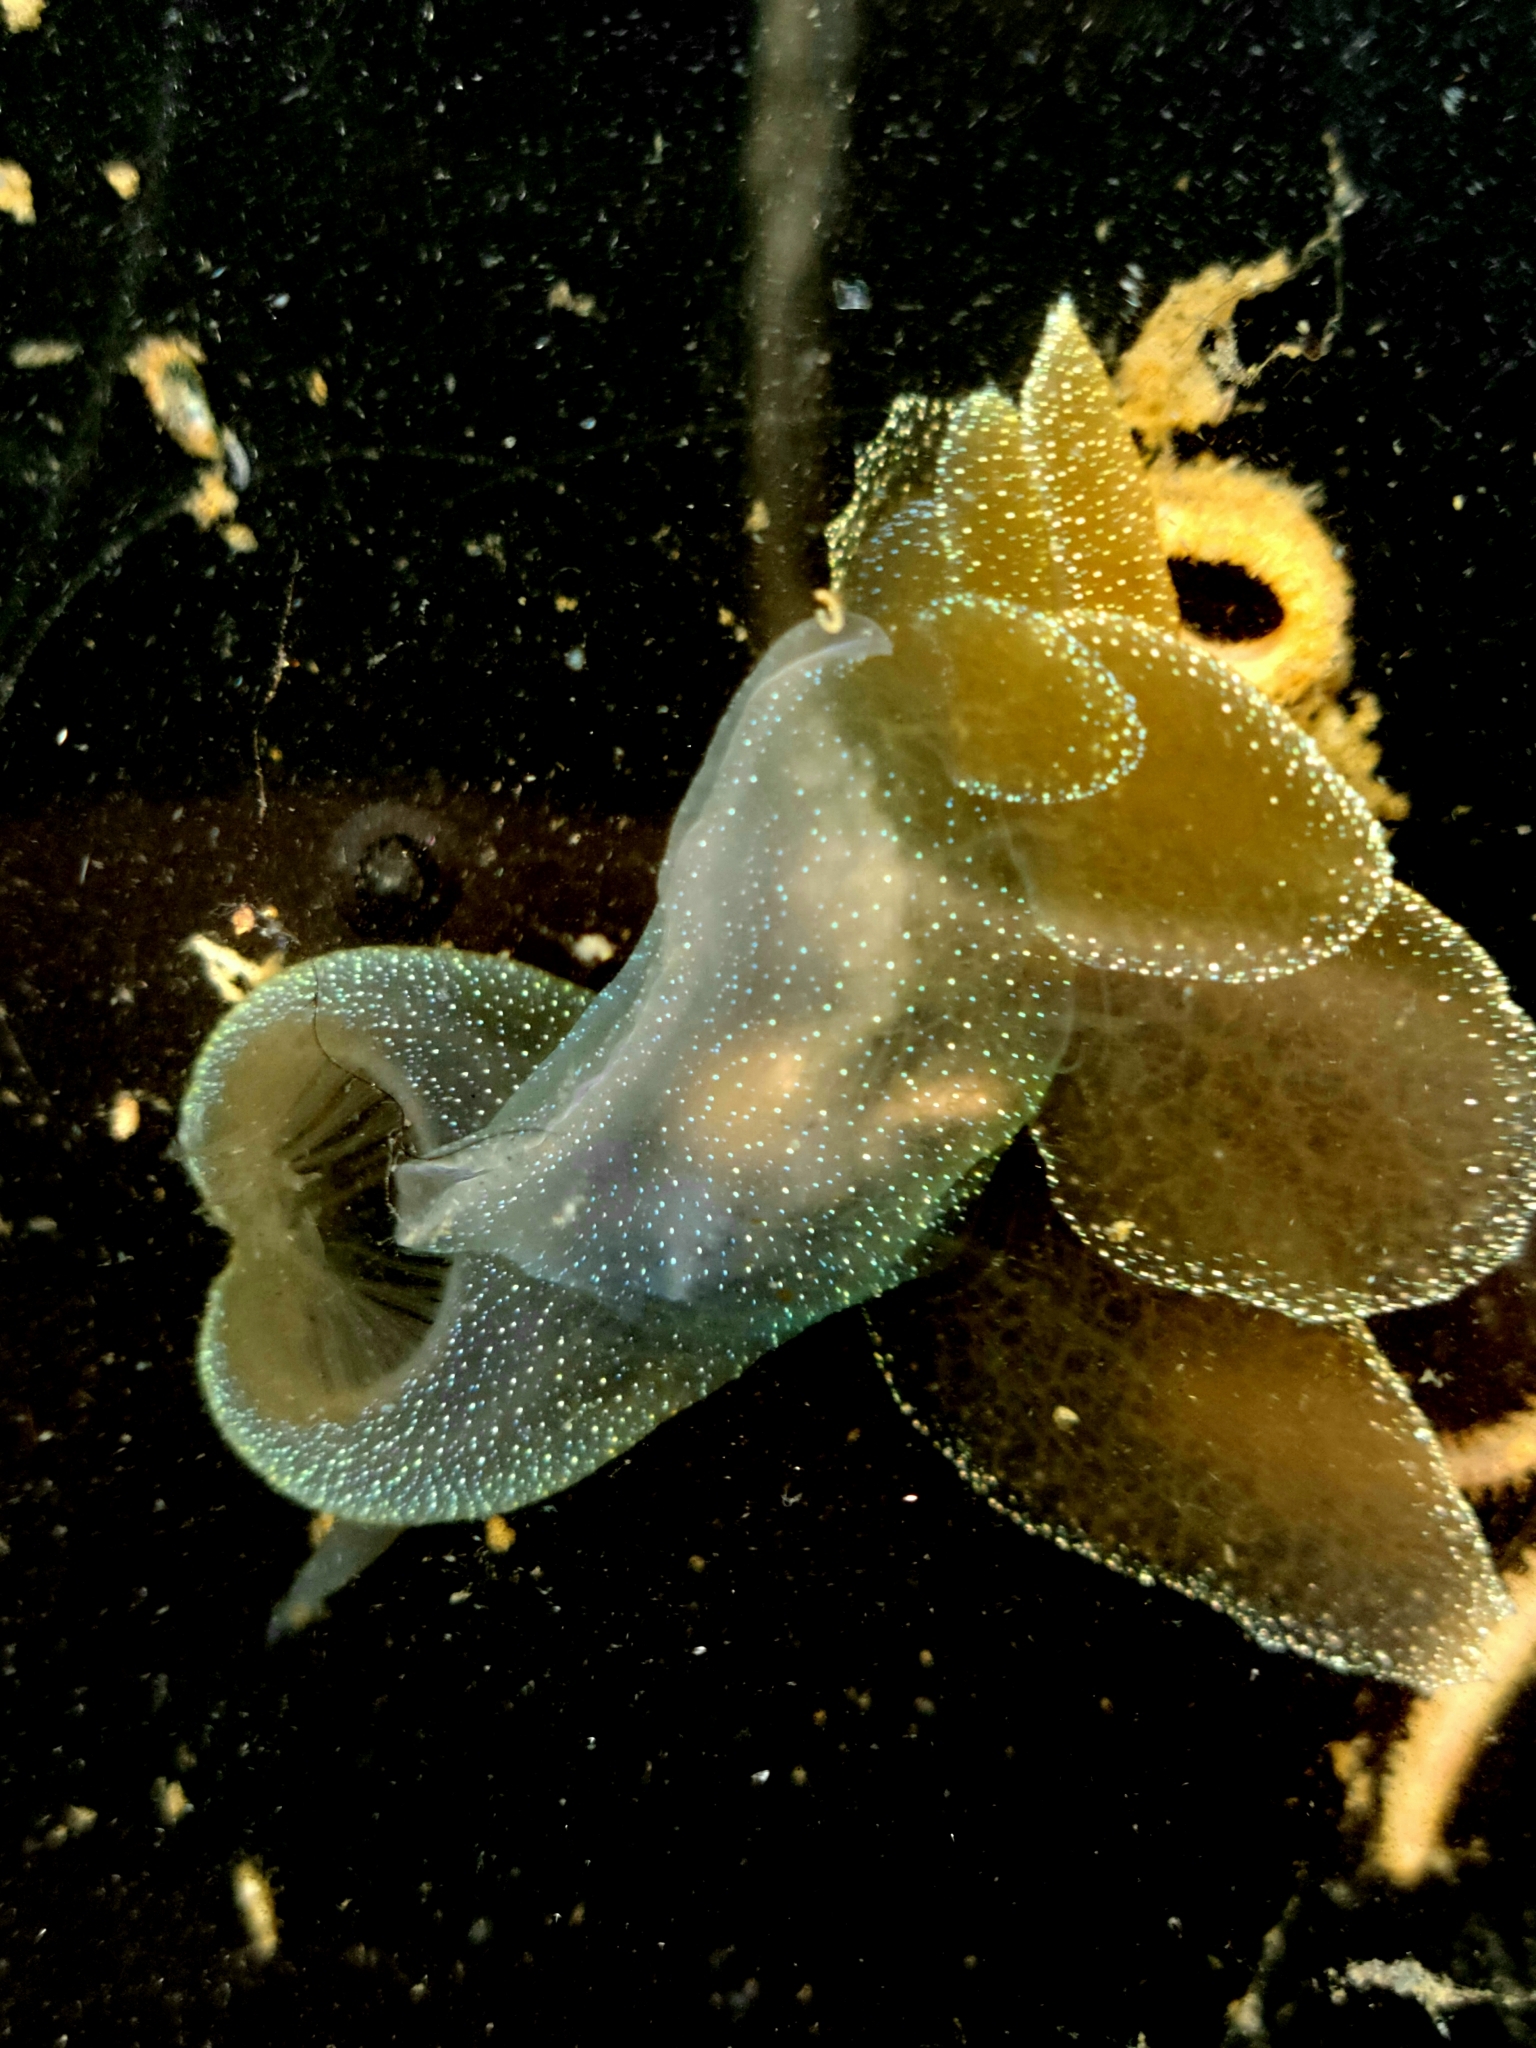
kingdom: Animalia
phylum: Mollusca
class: Gastropoda
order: Nudibranchia
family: Tethydidae
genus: Melibe
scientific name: Melibe leonina
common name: Lion nudibranch
